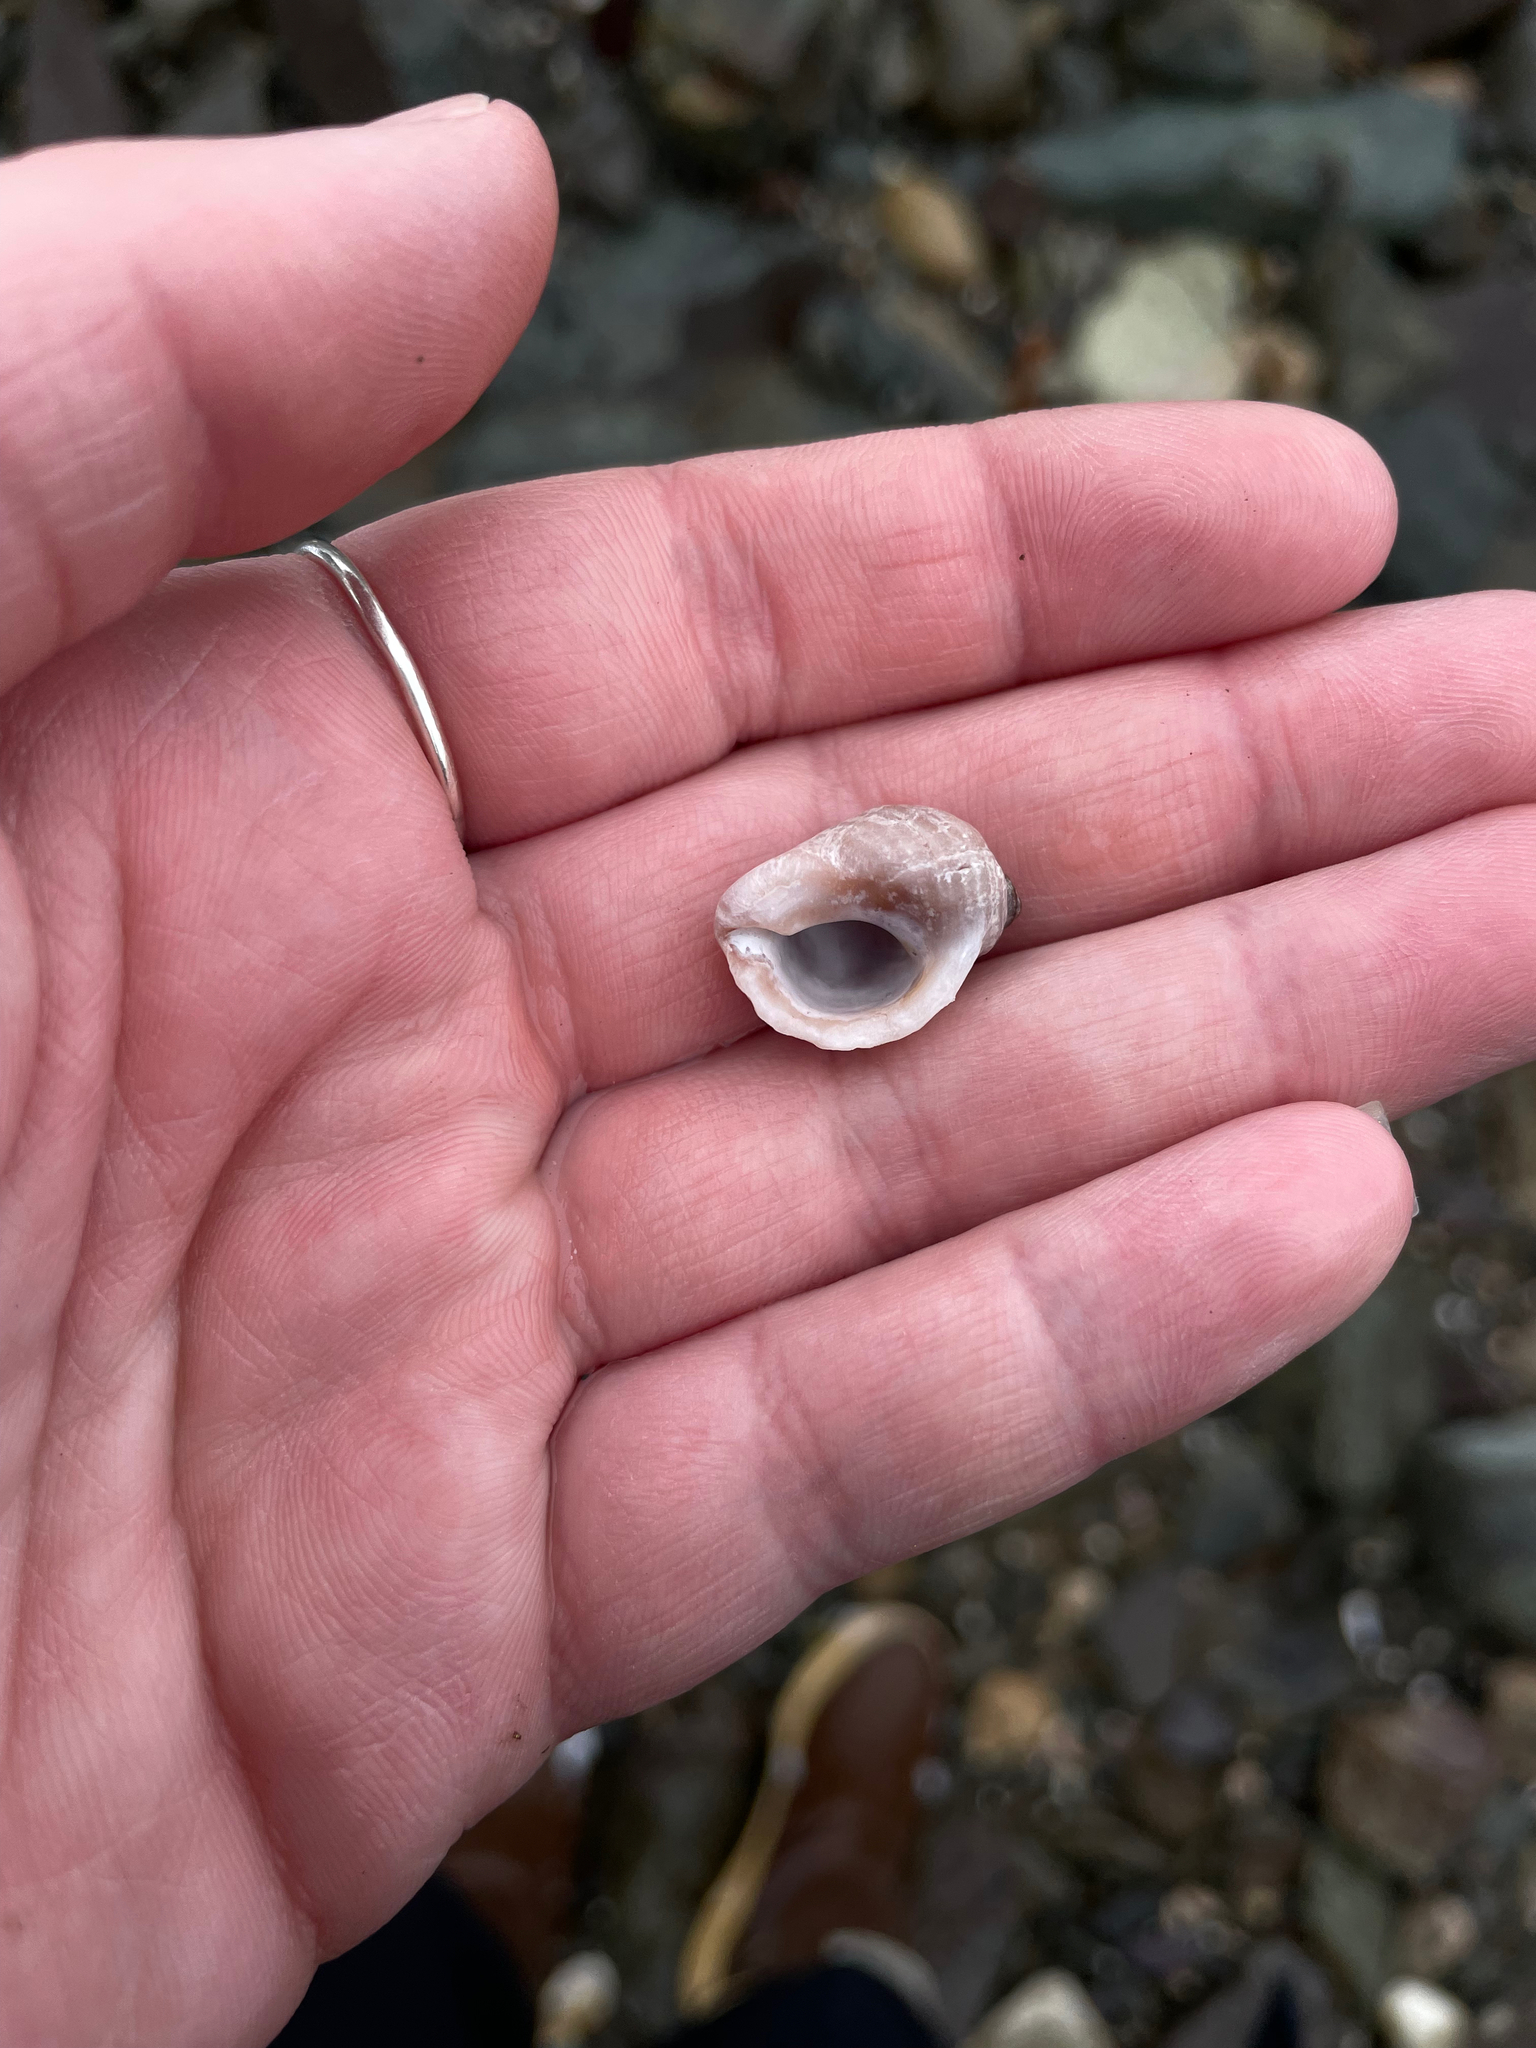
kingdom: Animalia
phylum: Mollusca
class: Gastropoda
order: Neogastropoda
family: Muricidae
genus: Nucella
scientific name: Nucella lapillus
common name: Dog whelk
